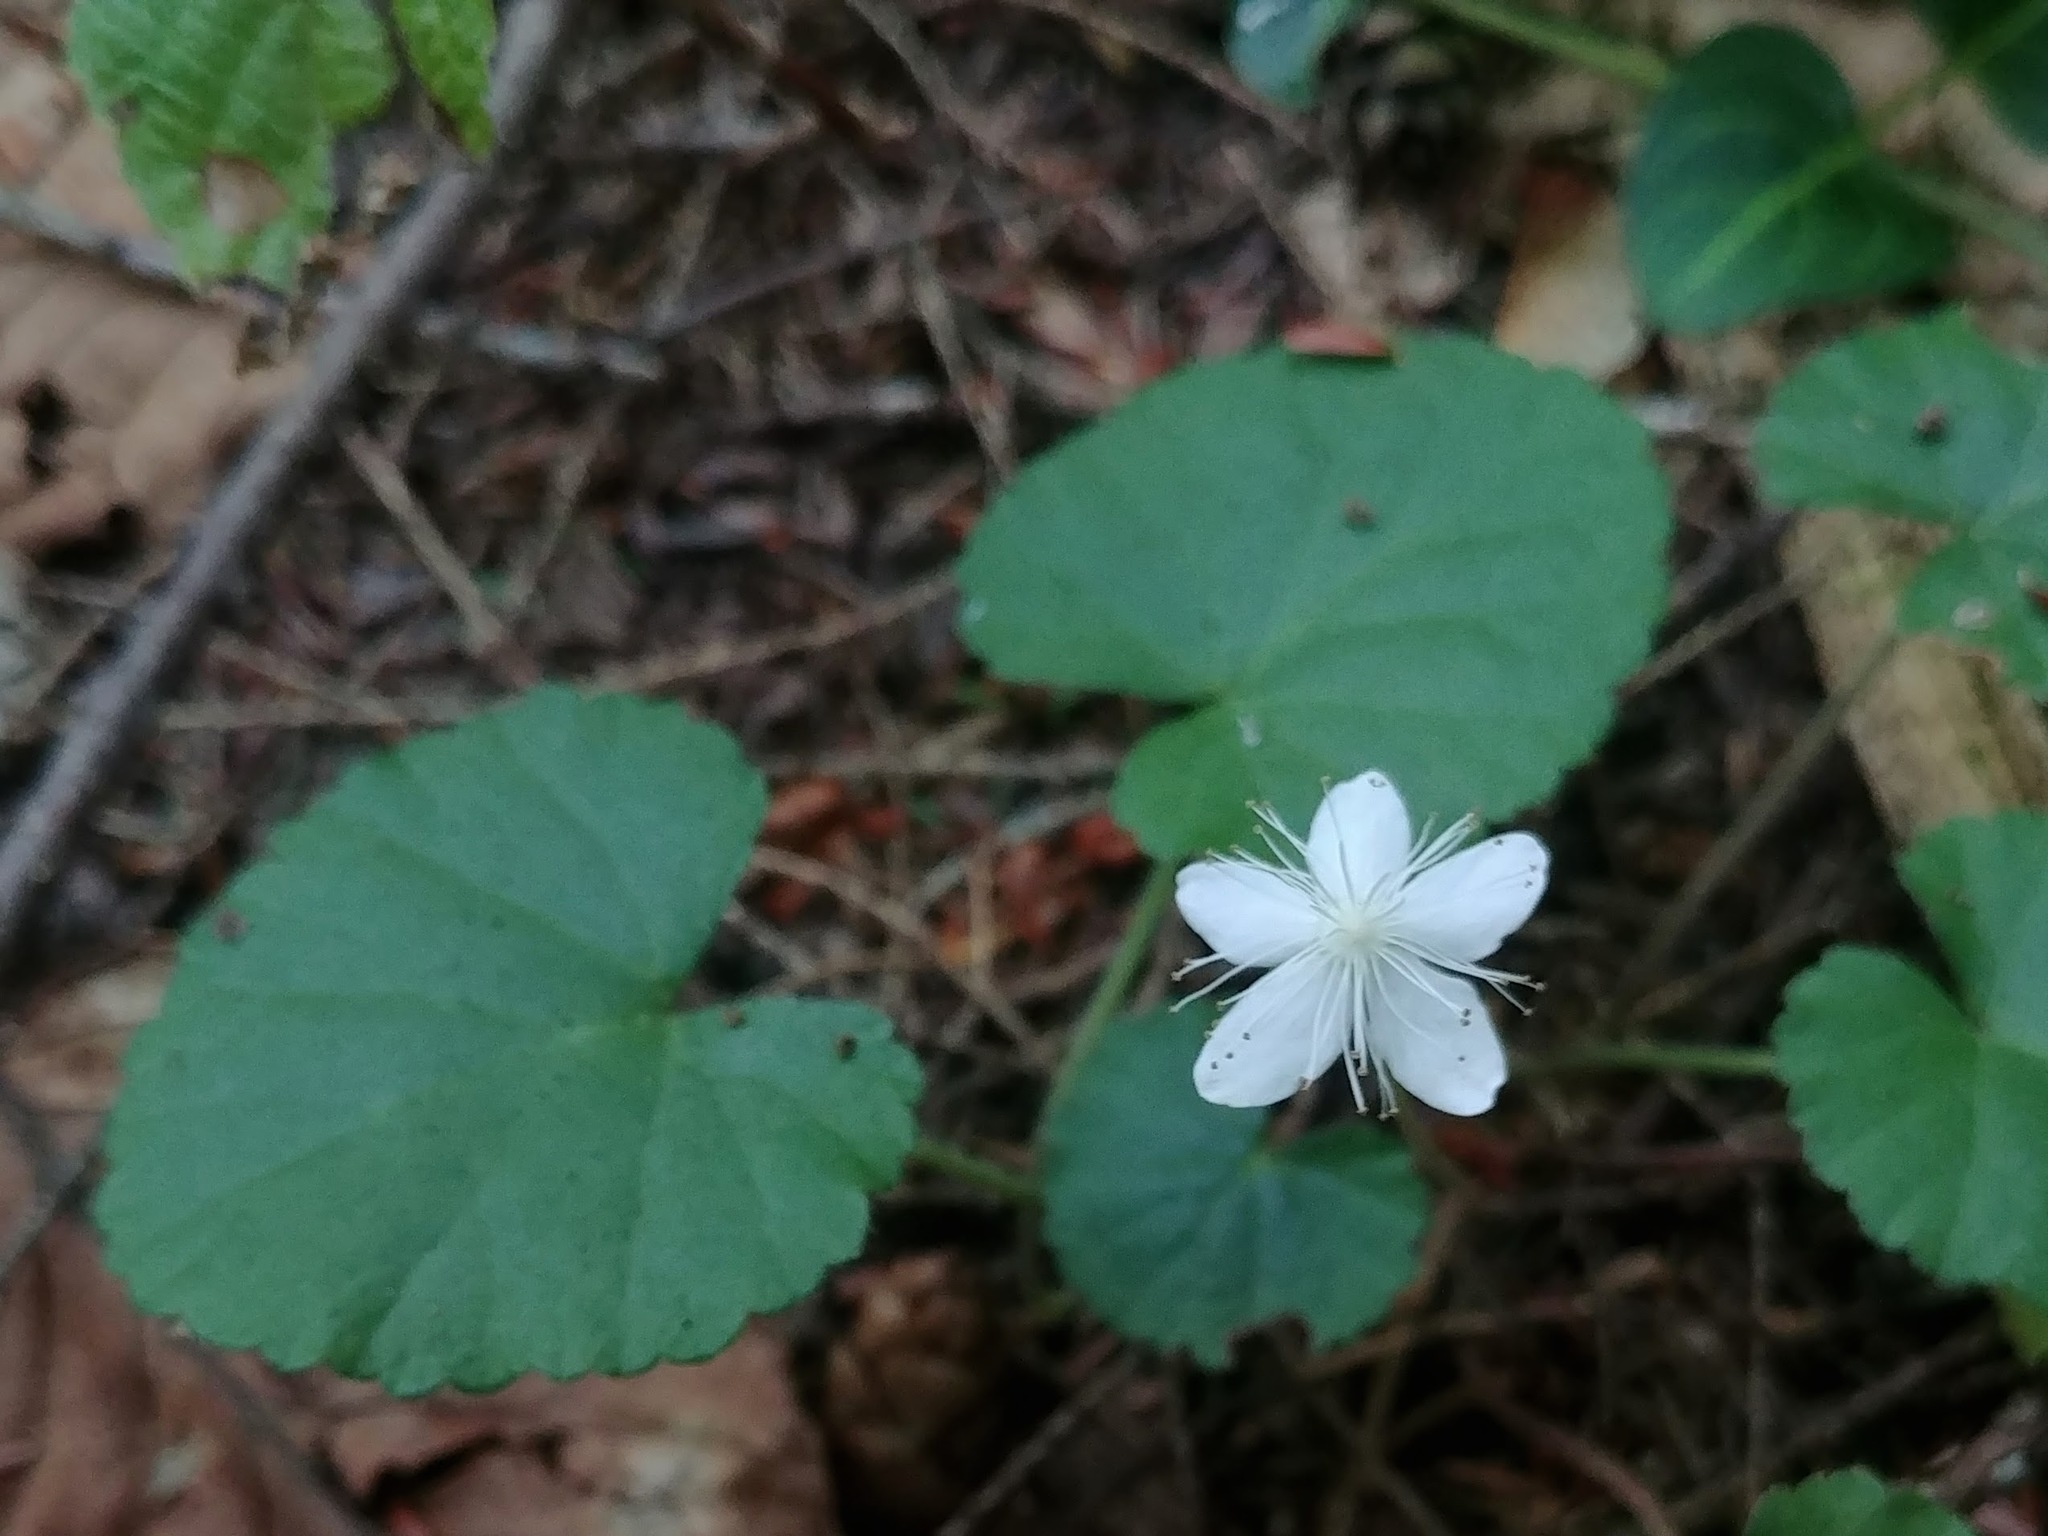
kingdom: Plantae
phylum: Tracheophyta
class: Magnoliopsida
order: Rosales
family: Rosaceae
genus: Dalibarda
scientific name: Dalibarda repens
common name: Dewdrop
